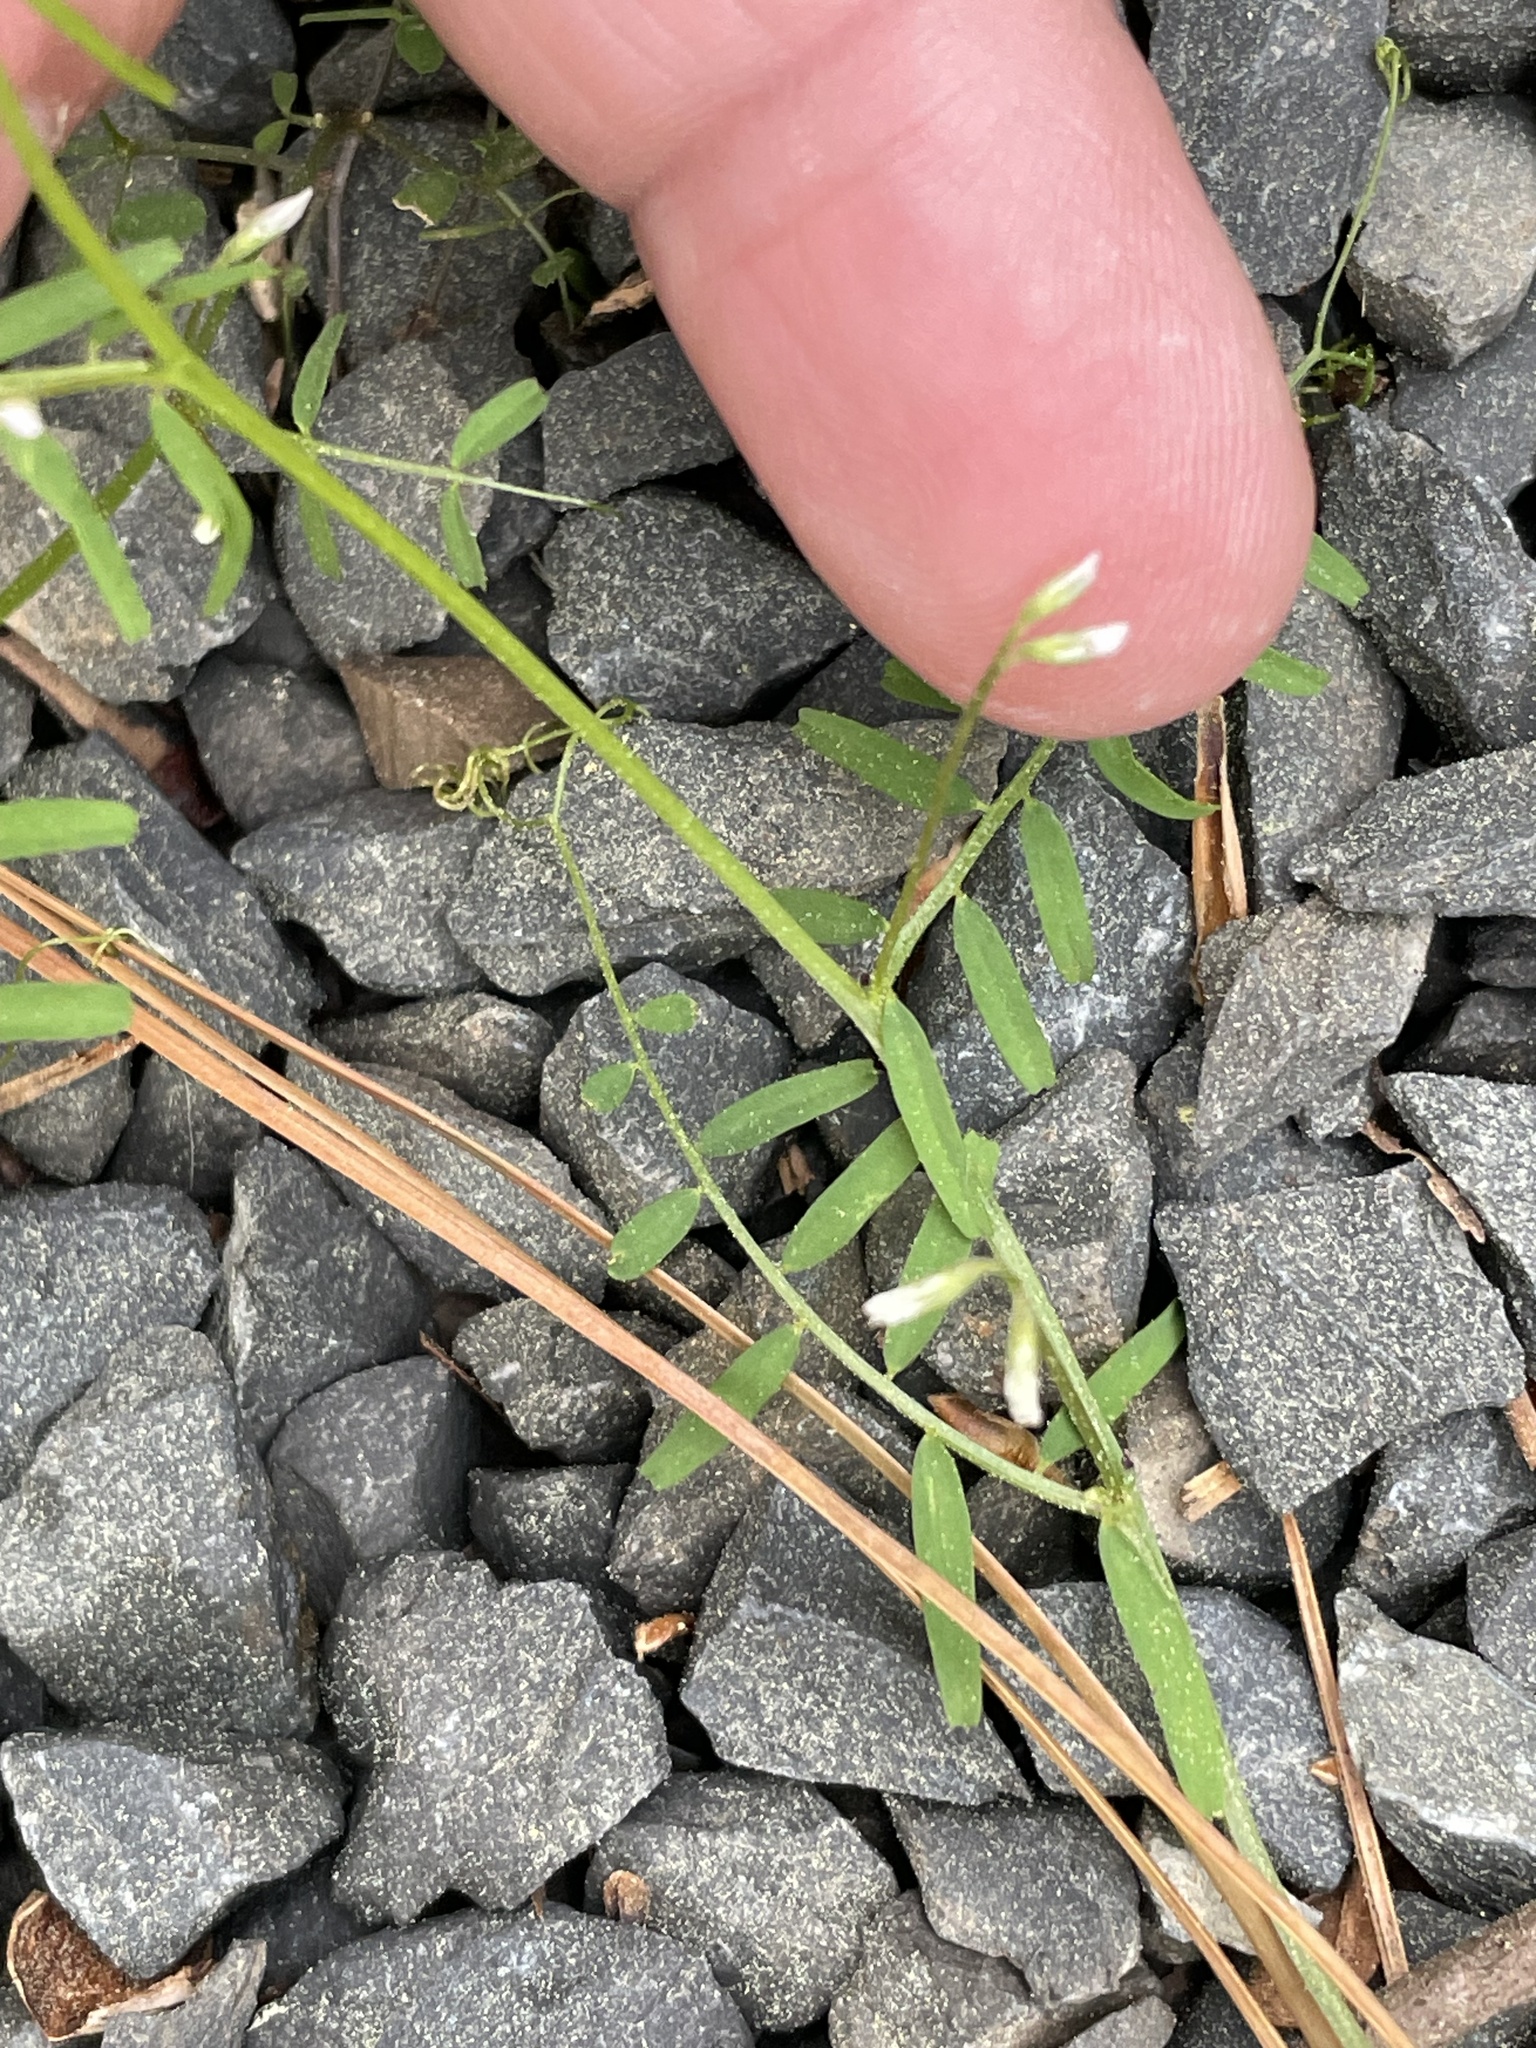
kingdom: Plantae
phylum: Tracheophyta
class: Magnoliopsida
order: Fabales
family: Fabaceae
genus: Vicia
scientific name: Vicia hirsuta
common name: Tiny vetch
